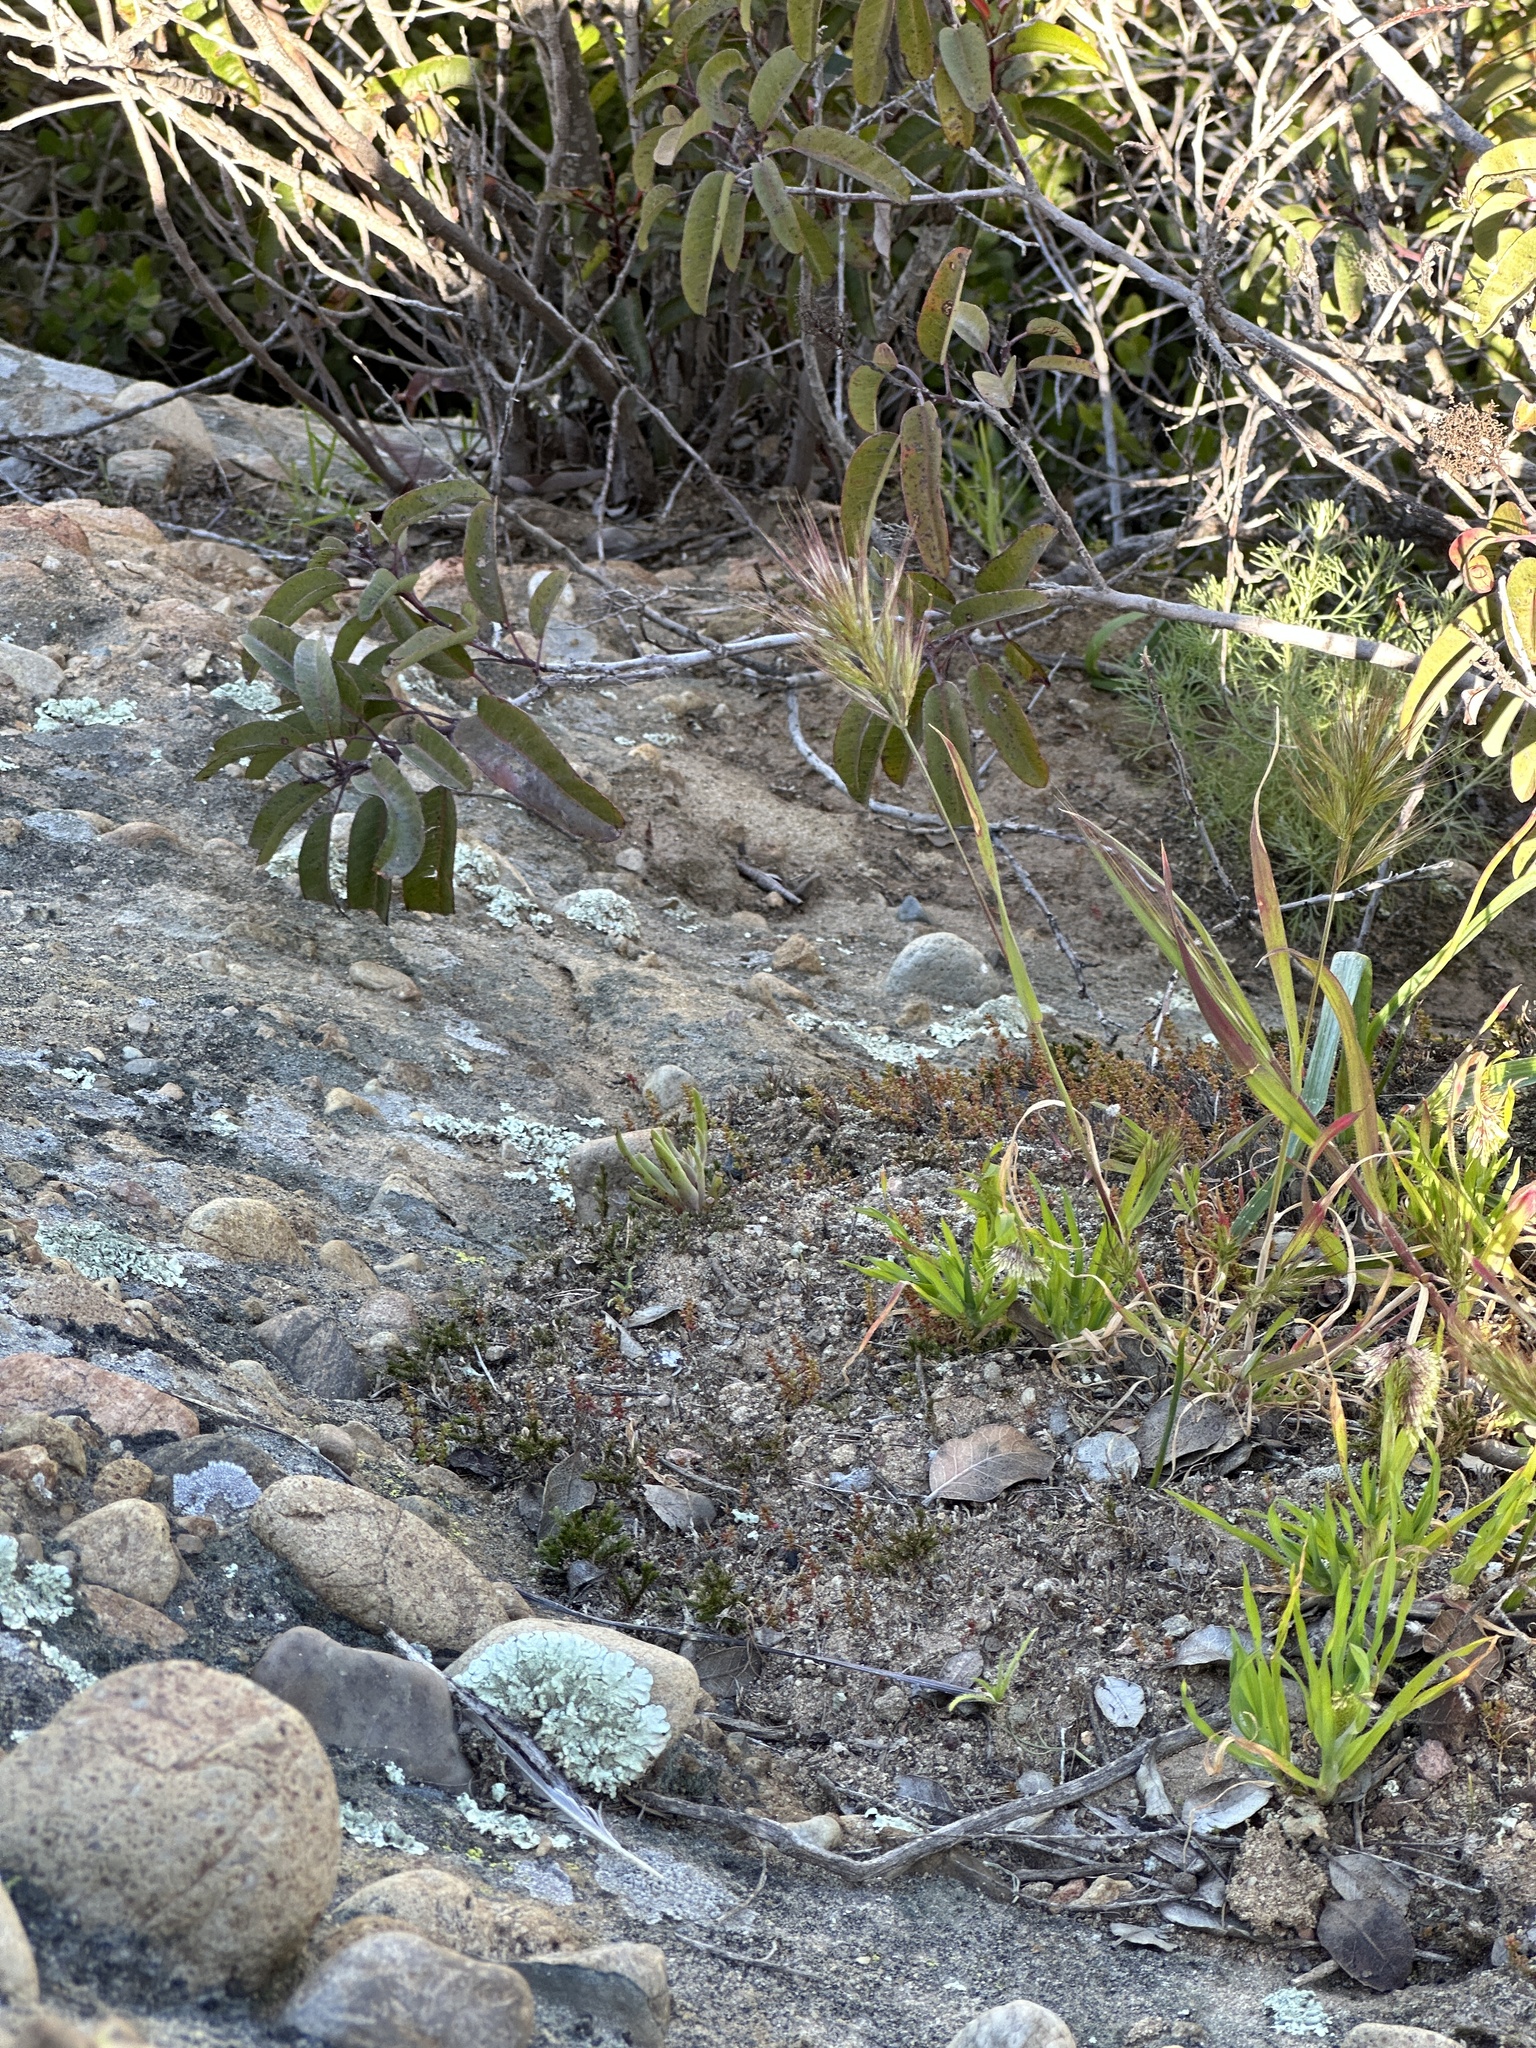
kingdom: Plantae
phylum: Tracheophyta
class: Magnoliopsida
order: Saxifragales
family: Crassulaceae
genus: Dudleya
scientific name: Dudleya multicaulis
